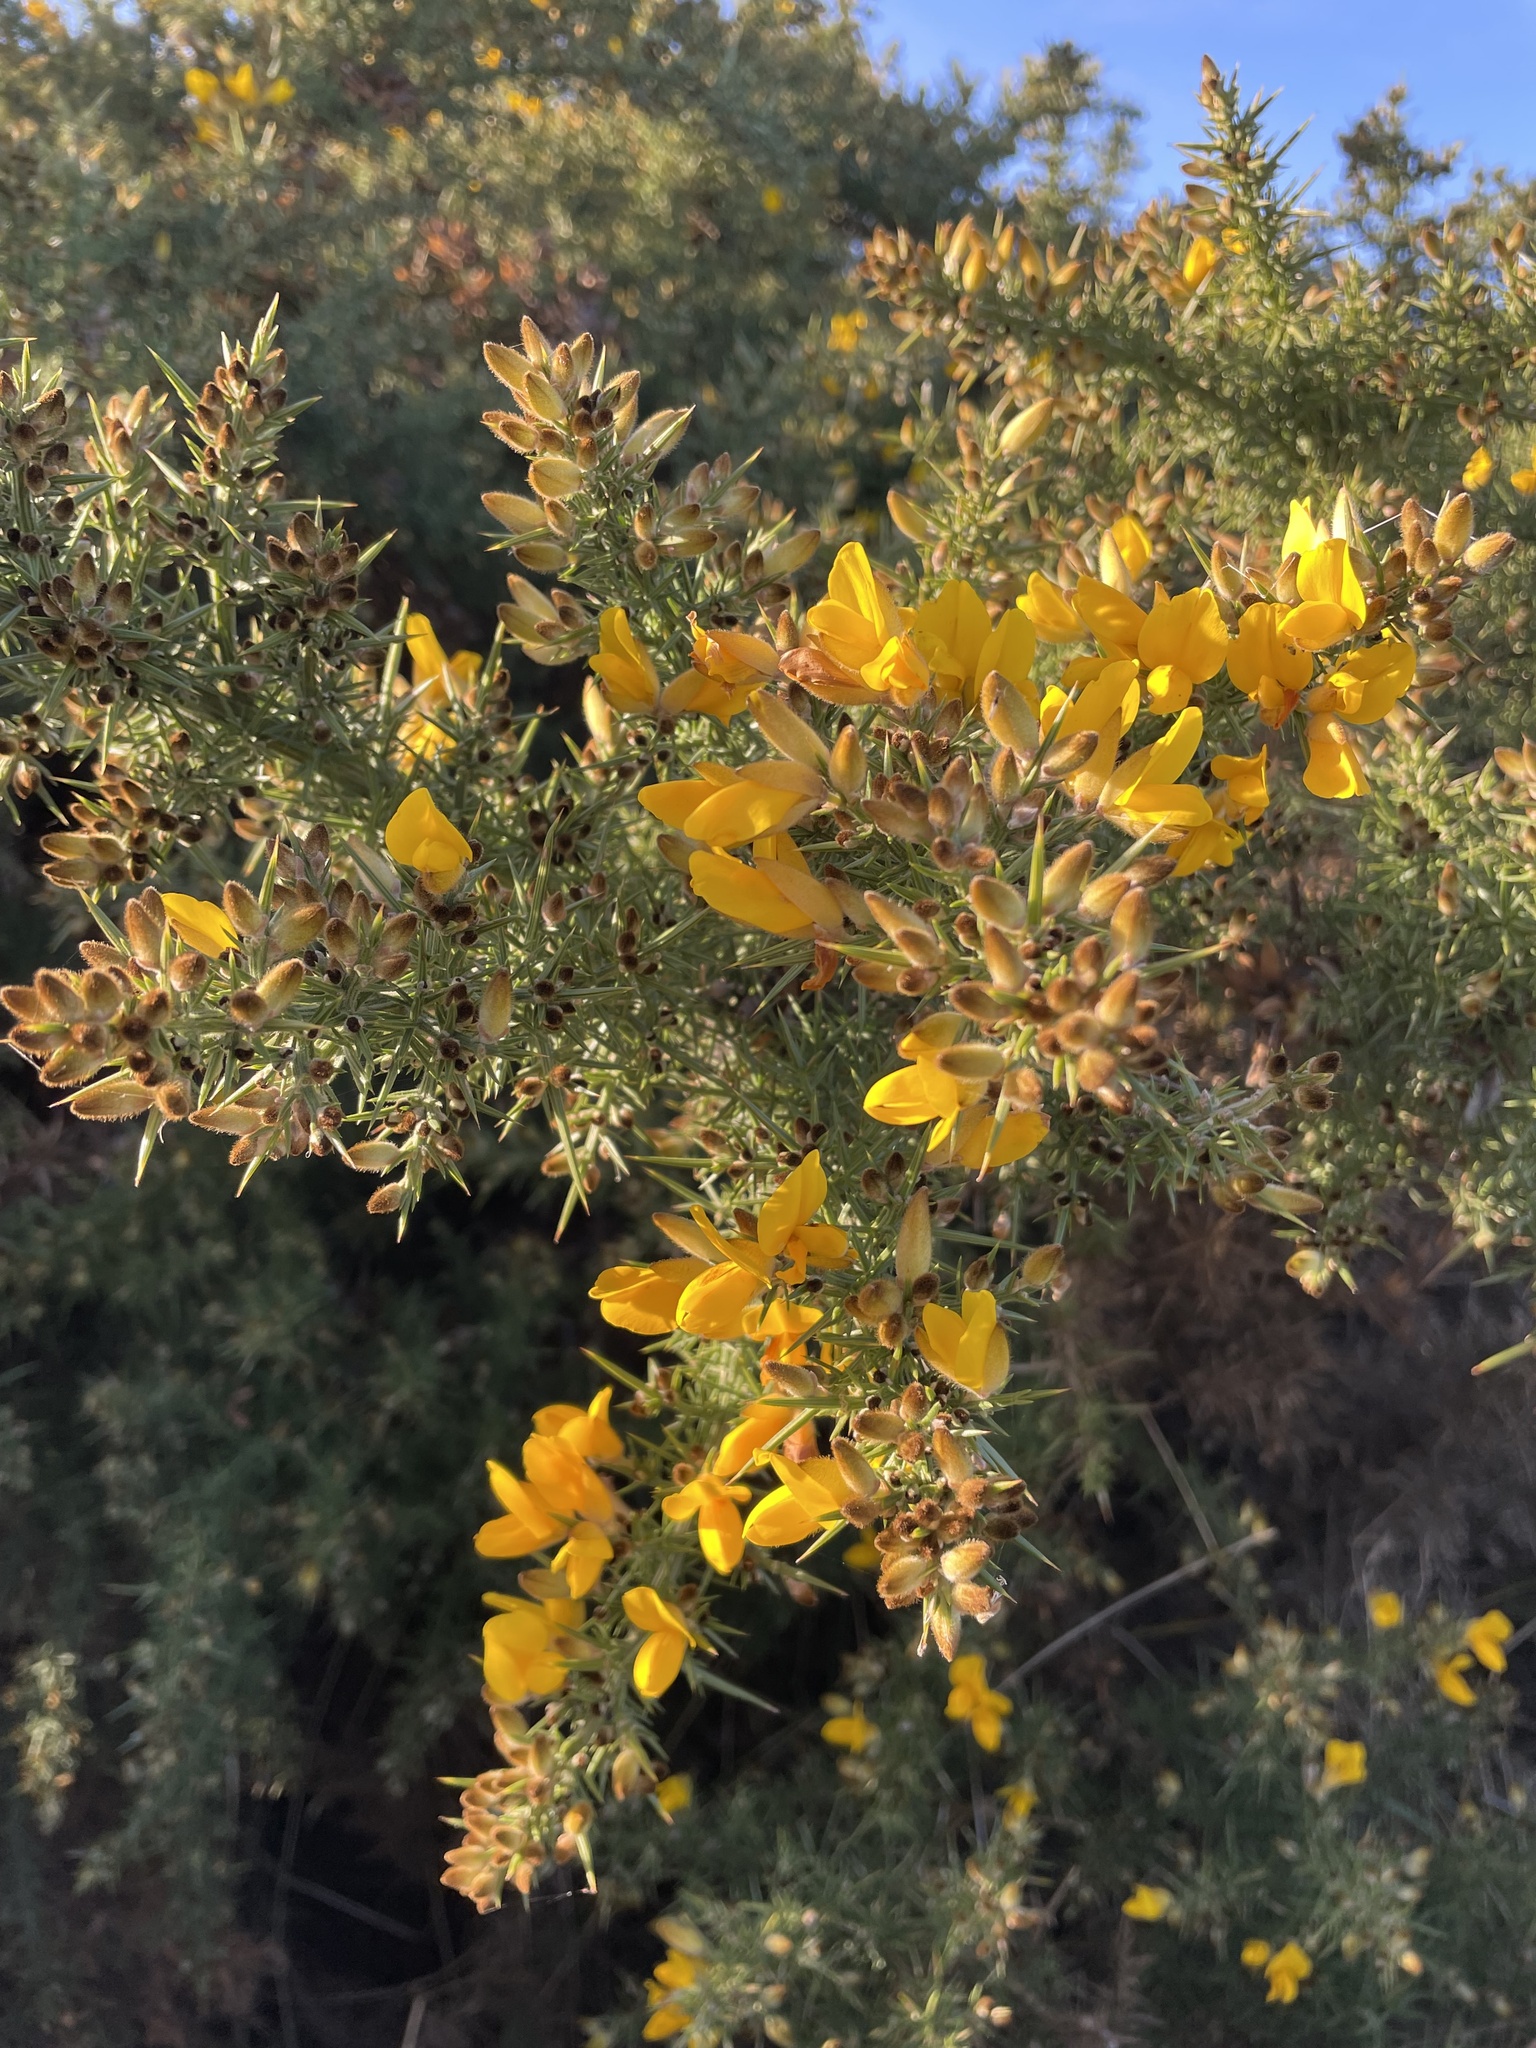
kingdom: Plantae
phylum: Tracheophyta
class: Magnoliopsida
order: Fabales
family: Fabaceae
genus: Ulex
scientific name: Ulex europaeus
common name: Common gorse
